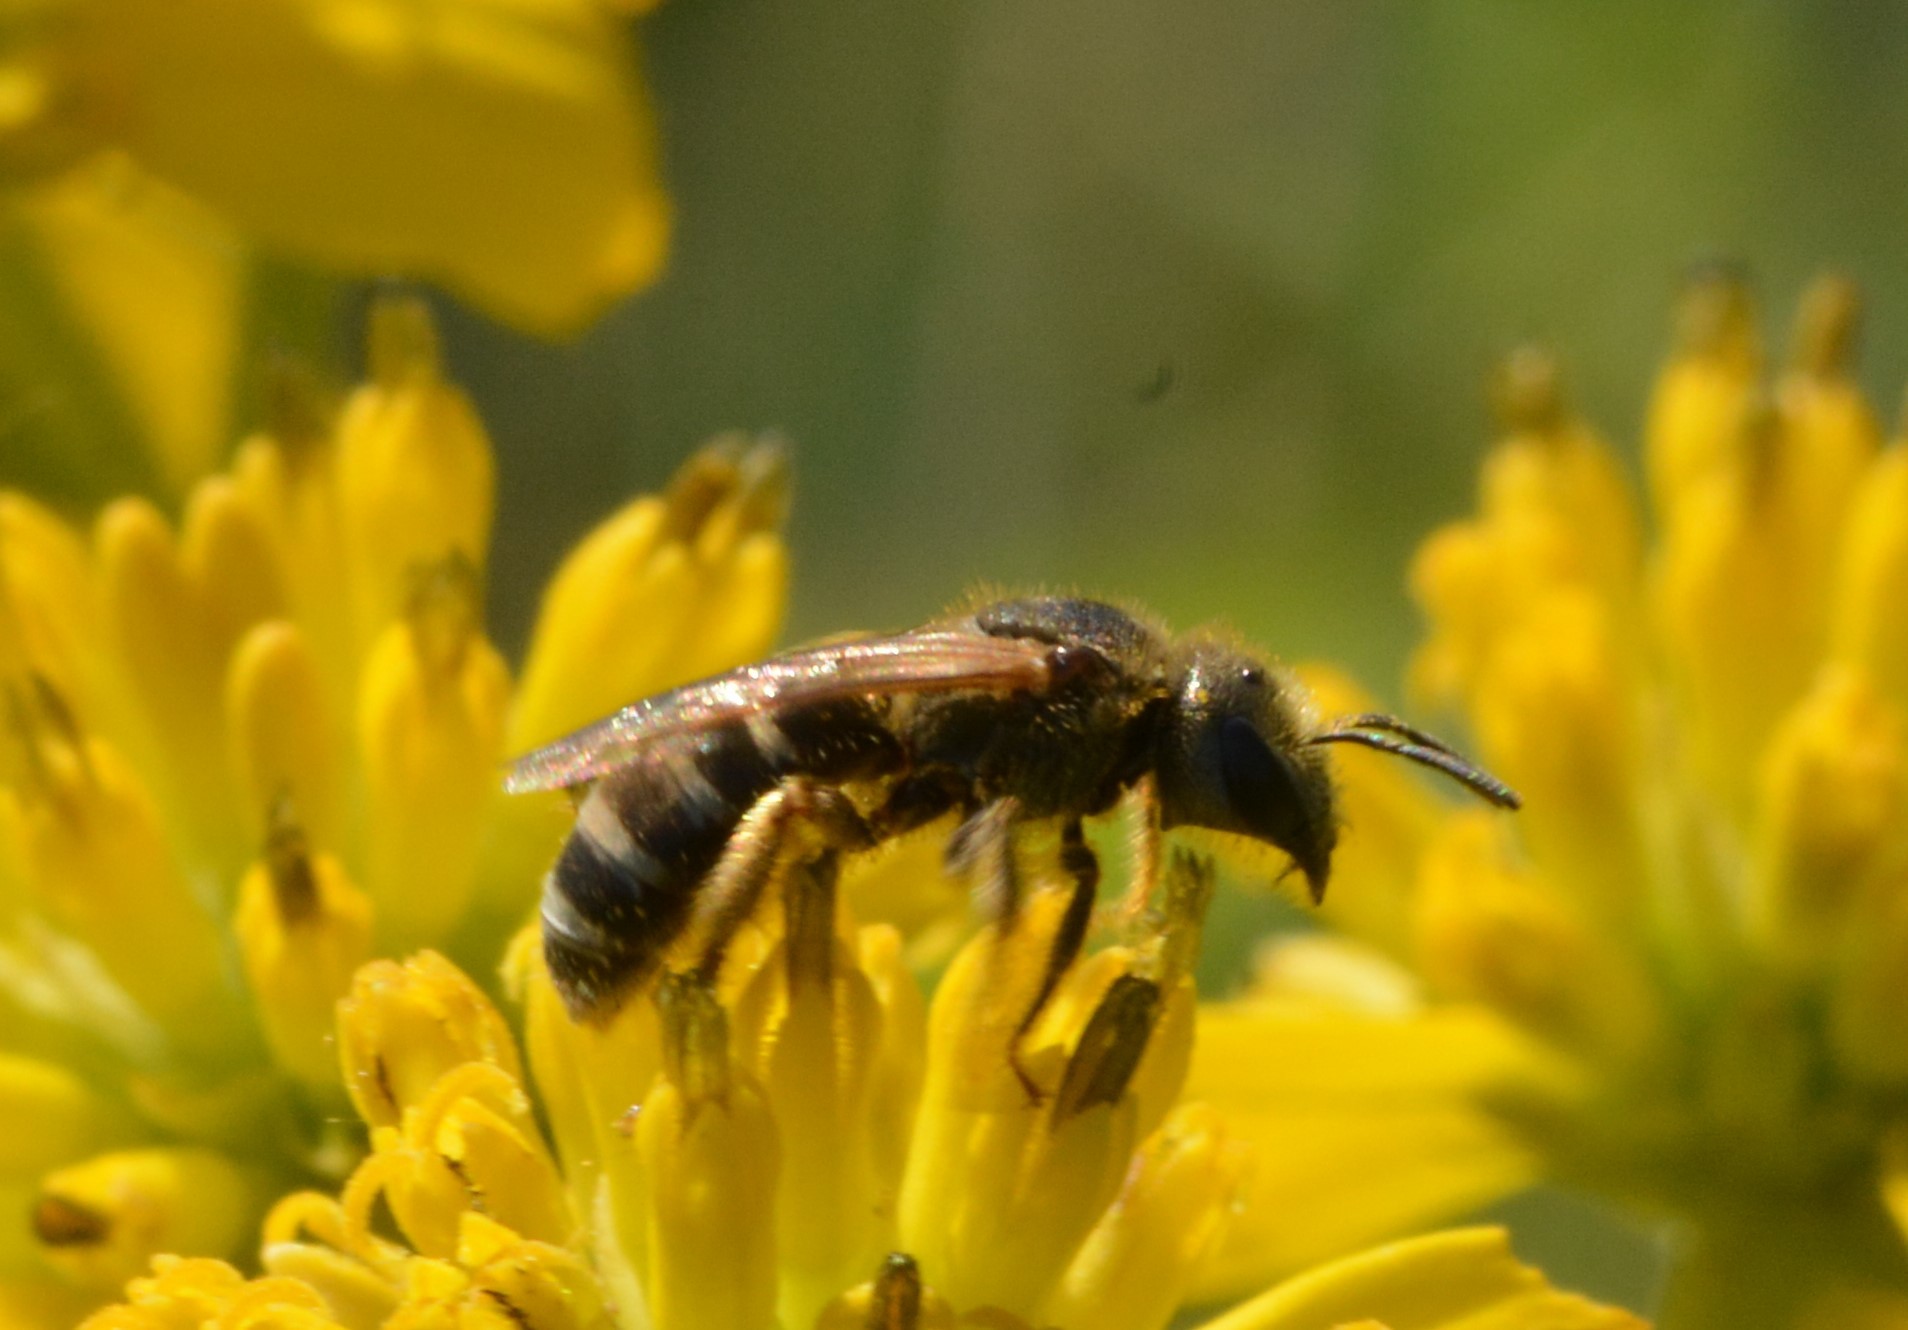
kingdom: Animalia
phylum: Arthropoda
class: Insecta
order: Hymenoptera
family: Halictidae
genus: Halictus
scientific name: Halictus ligatus
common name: Ligated furrow bee
